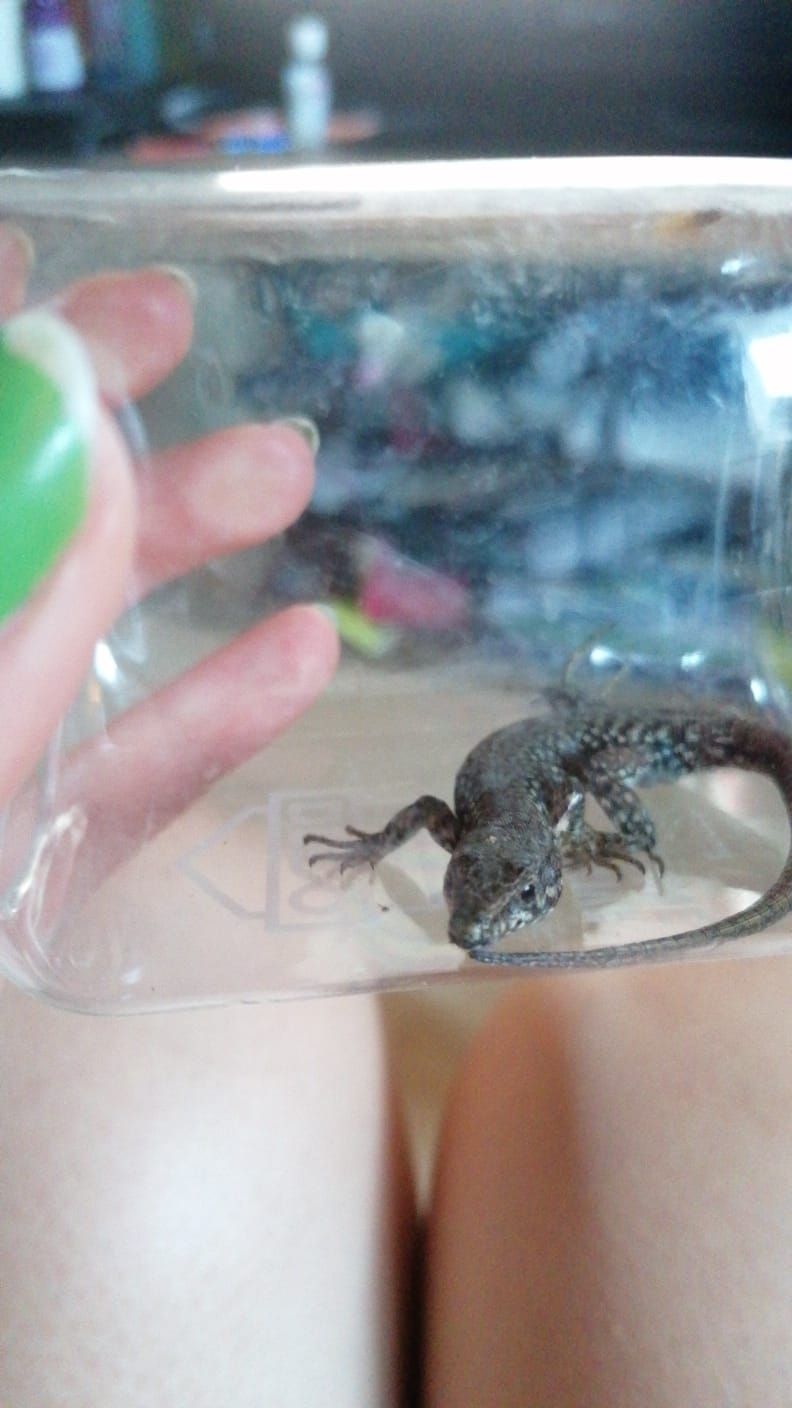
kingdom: Animalia
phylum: Chordata
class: Squamata
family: Lacertidae
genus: Podarcis
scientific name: Podarcis muralis
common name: Common wall lizard
